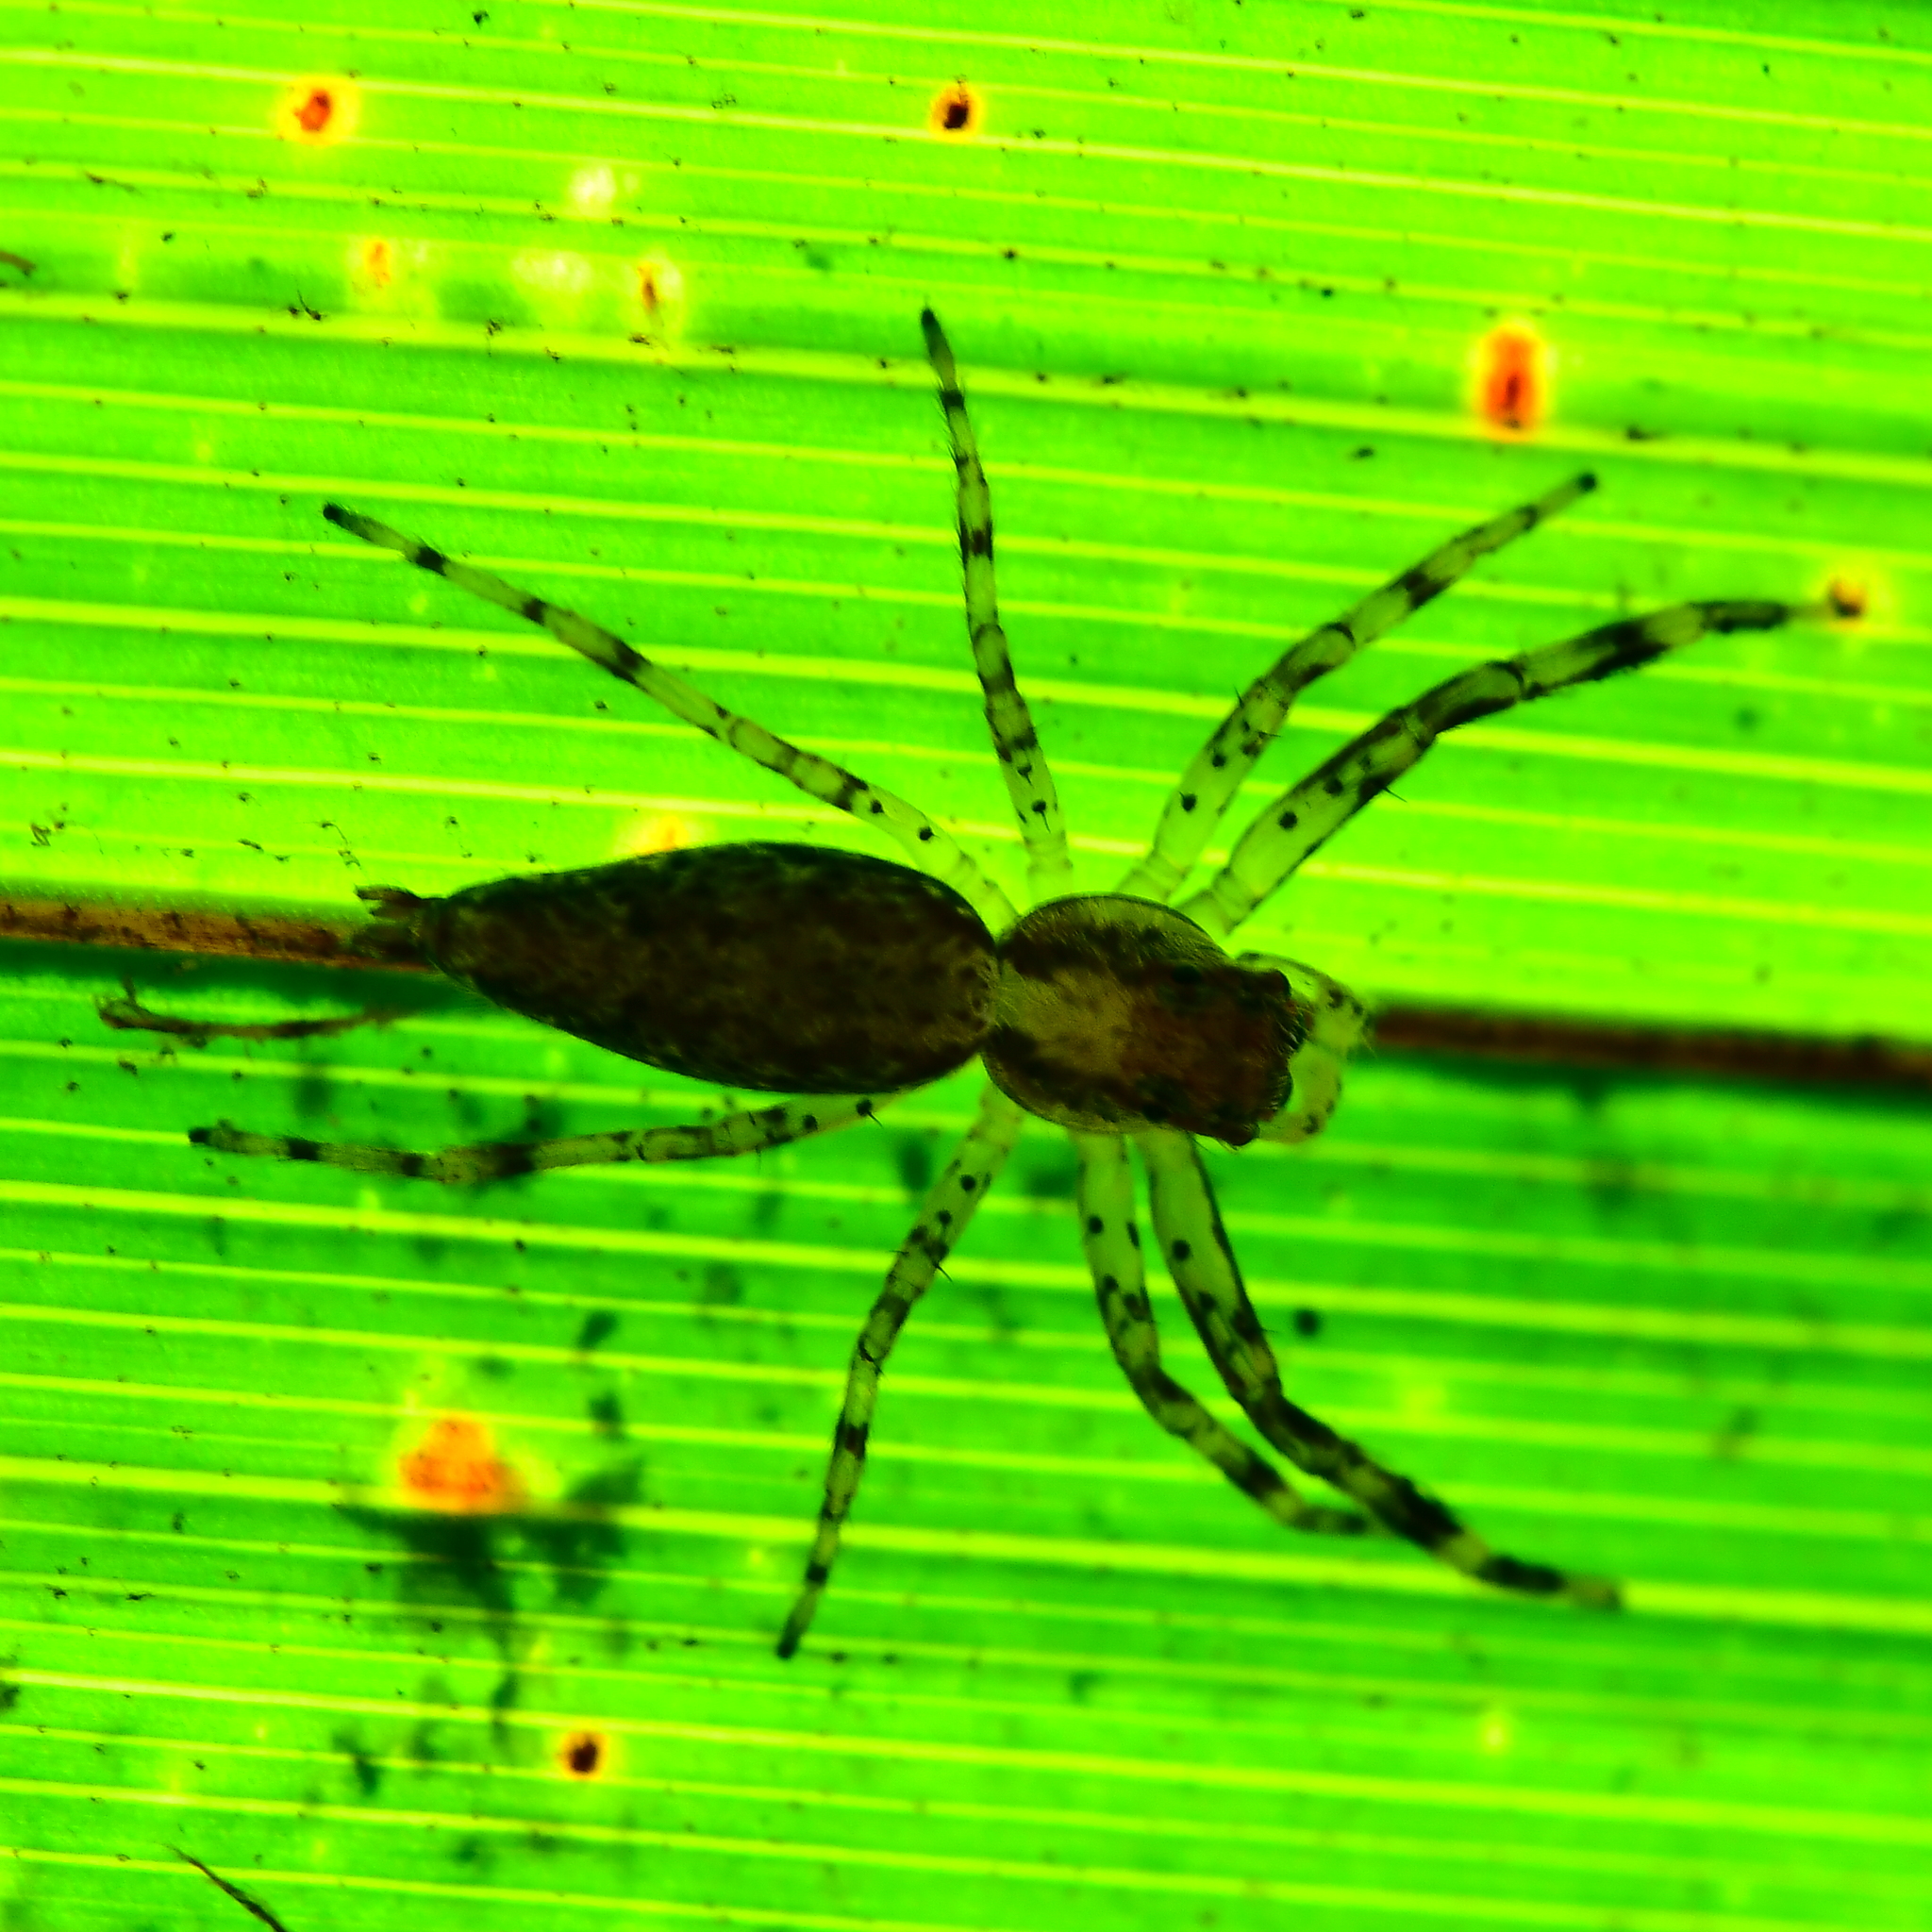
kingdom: Animalia
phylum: Arthropoda
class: Arachnida
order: Araneae
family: Salticidae
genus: Helpis
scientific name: Helpis minitabunda
